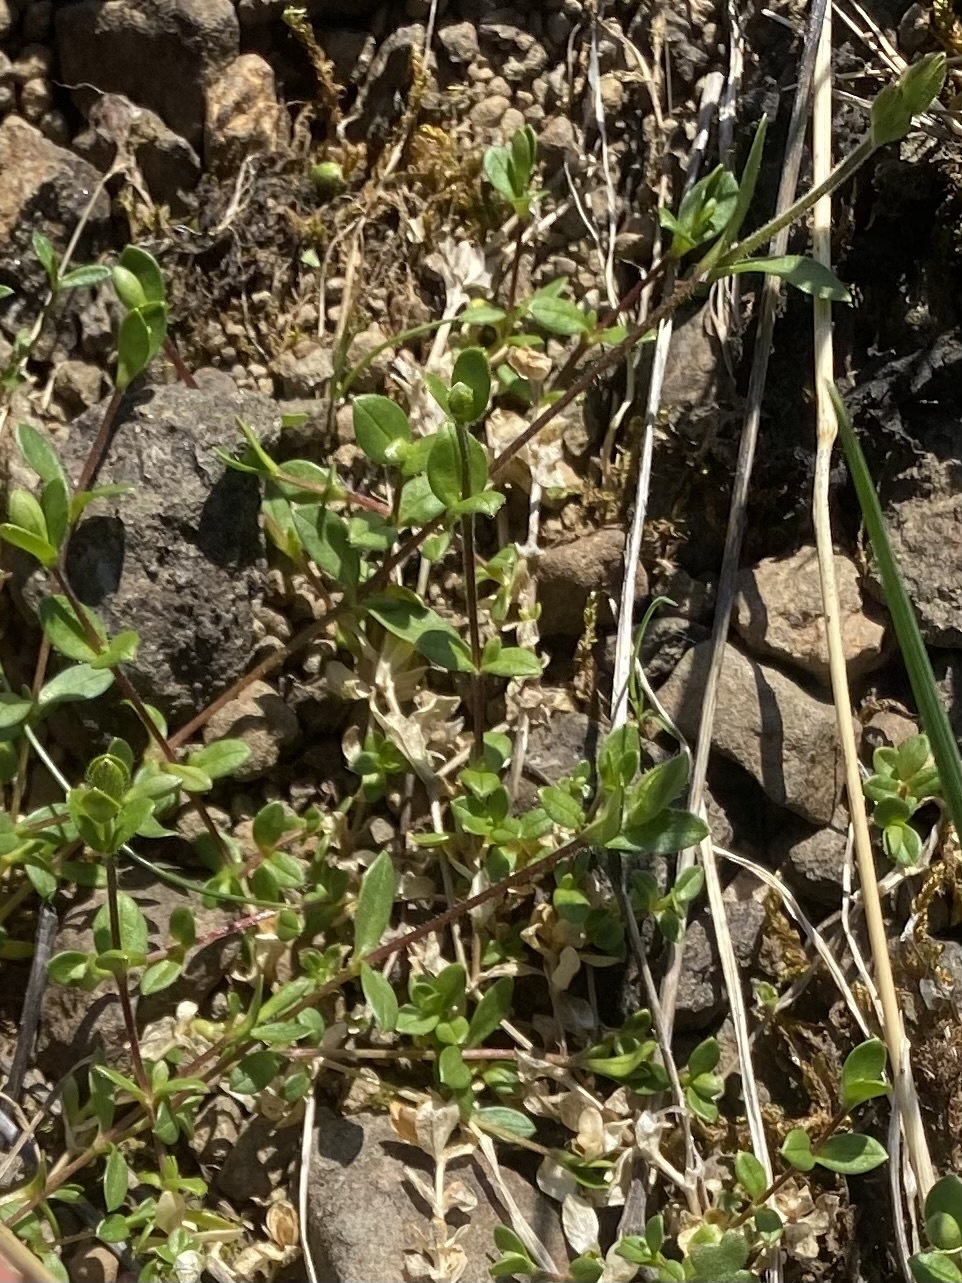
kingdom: Plantae
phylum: Tracheophyta
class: Magnoliopsida
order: Caryophyllales
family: Caryophyllaceae
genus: Cerastium
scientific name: Cerastium regelii
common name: Regel's chickweed
